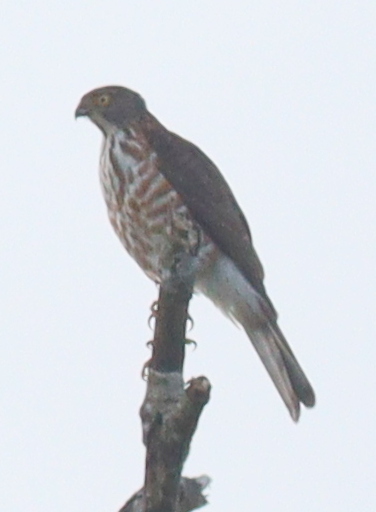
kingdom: Animalia
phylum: Chordata
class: Aves
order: Accipitriformes
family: Accipitridae
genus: Accipiter
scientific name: Accipiter virgatus
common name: Besra
